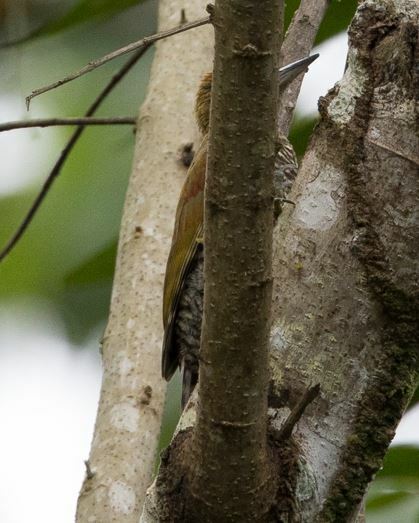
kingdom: Animalia
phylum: Chordata
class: Aves
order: Piciformes
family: Picidae
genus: Veniliornis
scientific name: Veniliornis affinis
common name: Red-stained woodpecker
